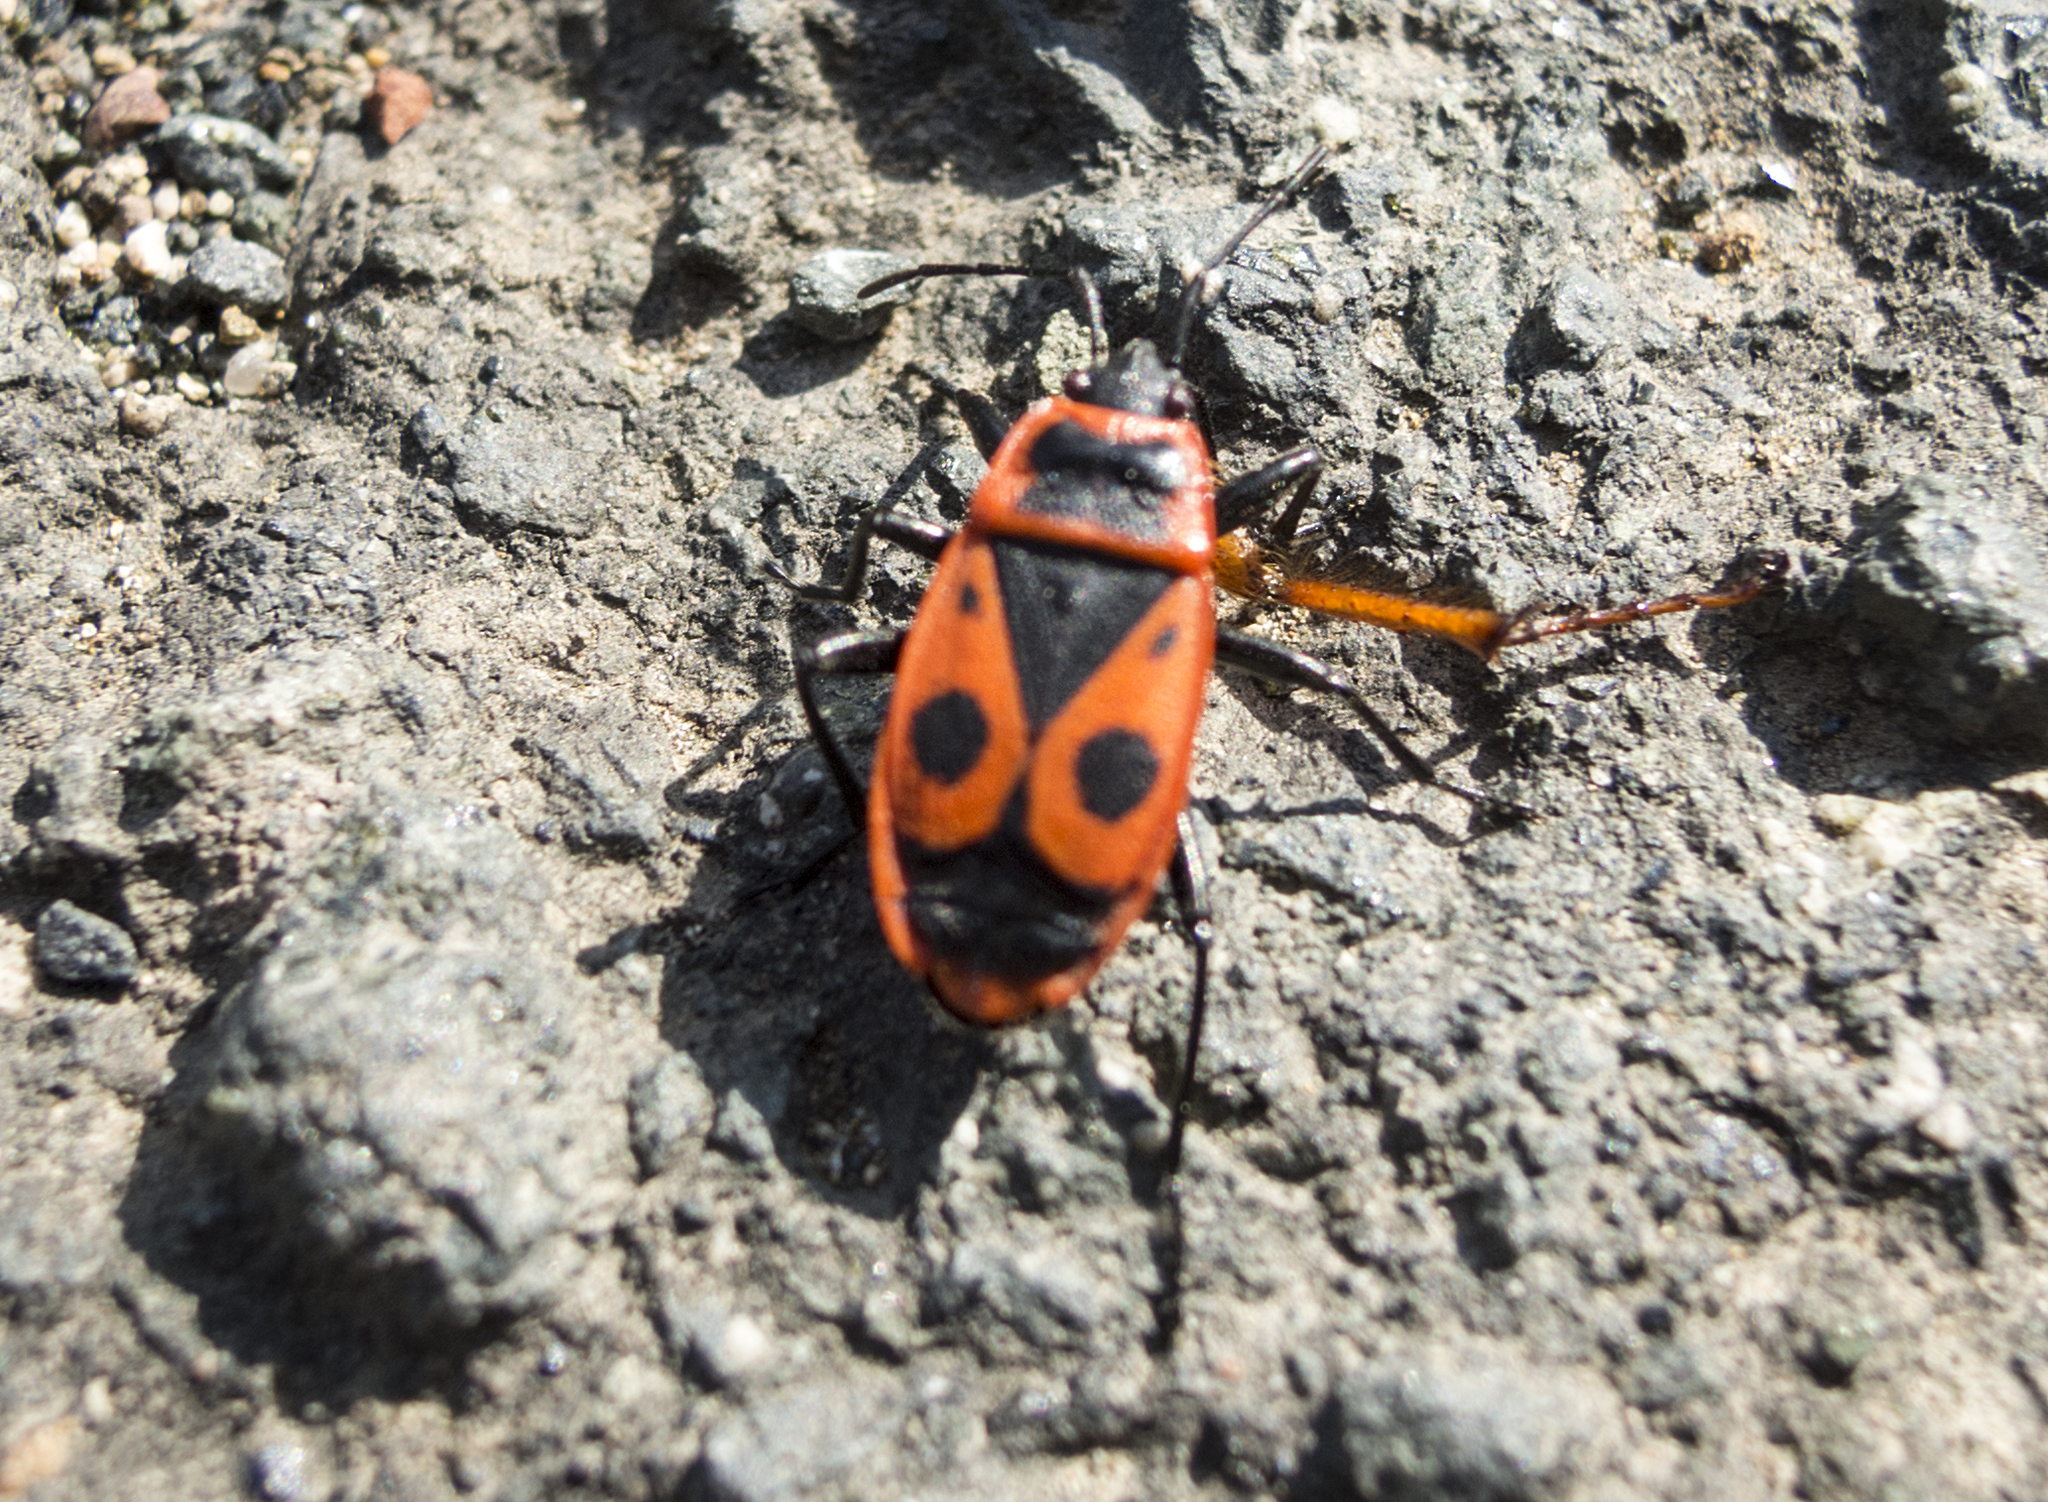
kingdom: Animalia
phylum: Arthropoda
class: Insecta
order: Hemiptera
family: Pyrrhocoridae
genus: Pyrrhocoris
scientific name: Pyrrhocoris apterus
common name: Firebug
